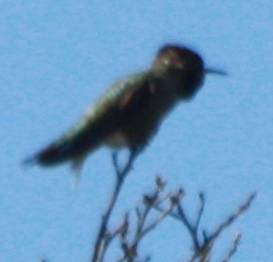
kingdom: Animalia
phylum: Chordata
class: Aves
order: Apodiformes
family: Trochilidae
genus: Calypte
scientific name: Calypte anna
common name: Anna's hummingbird
